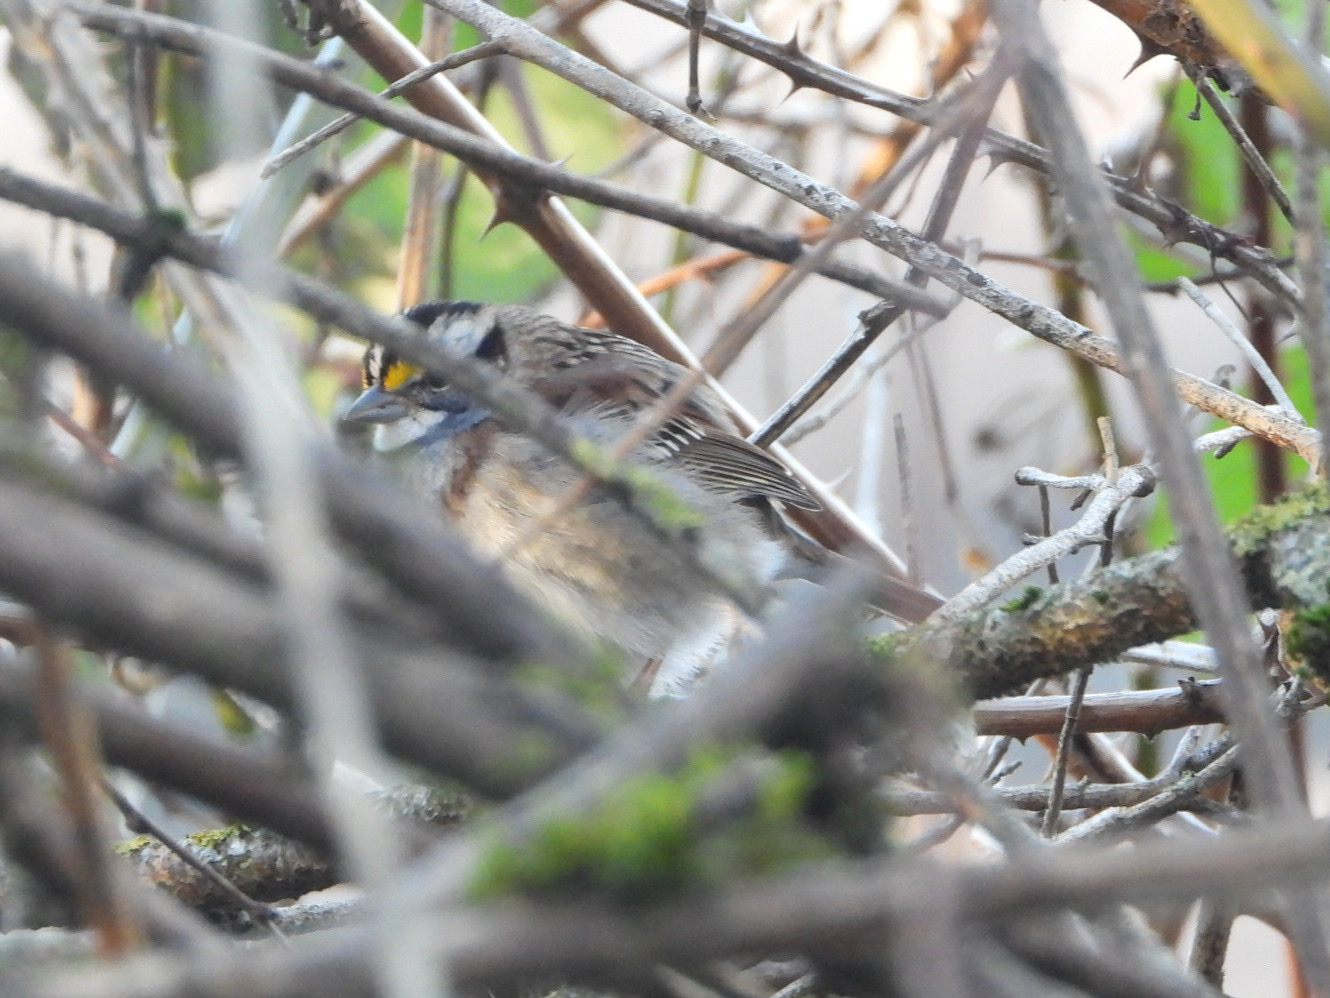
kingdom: Animalia
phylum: Chordata
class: Aves
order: Passeriformes
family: Passerellidae
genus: Zonotrichia
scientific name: Zonotrichia albicollis
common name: White-throated sparrow
